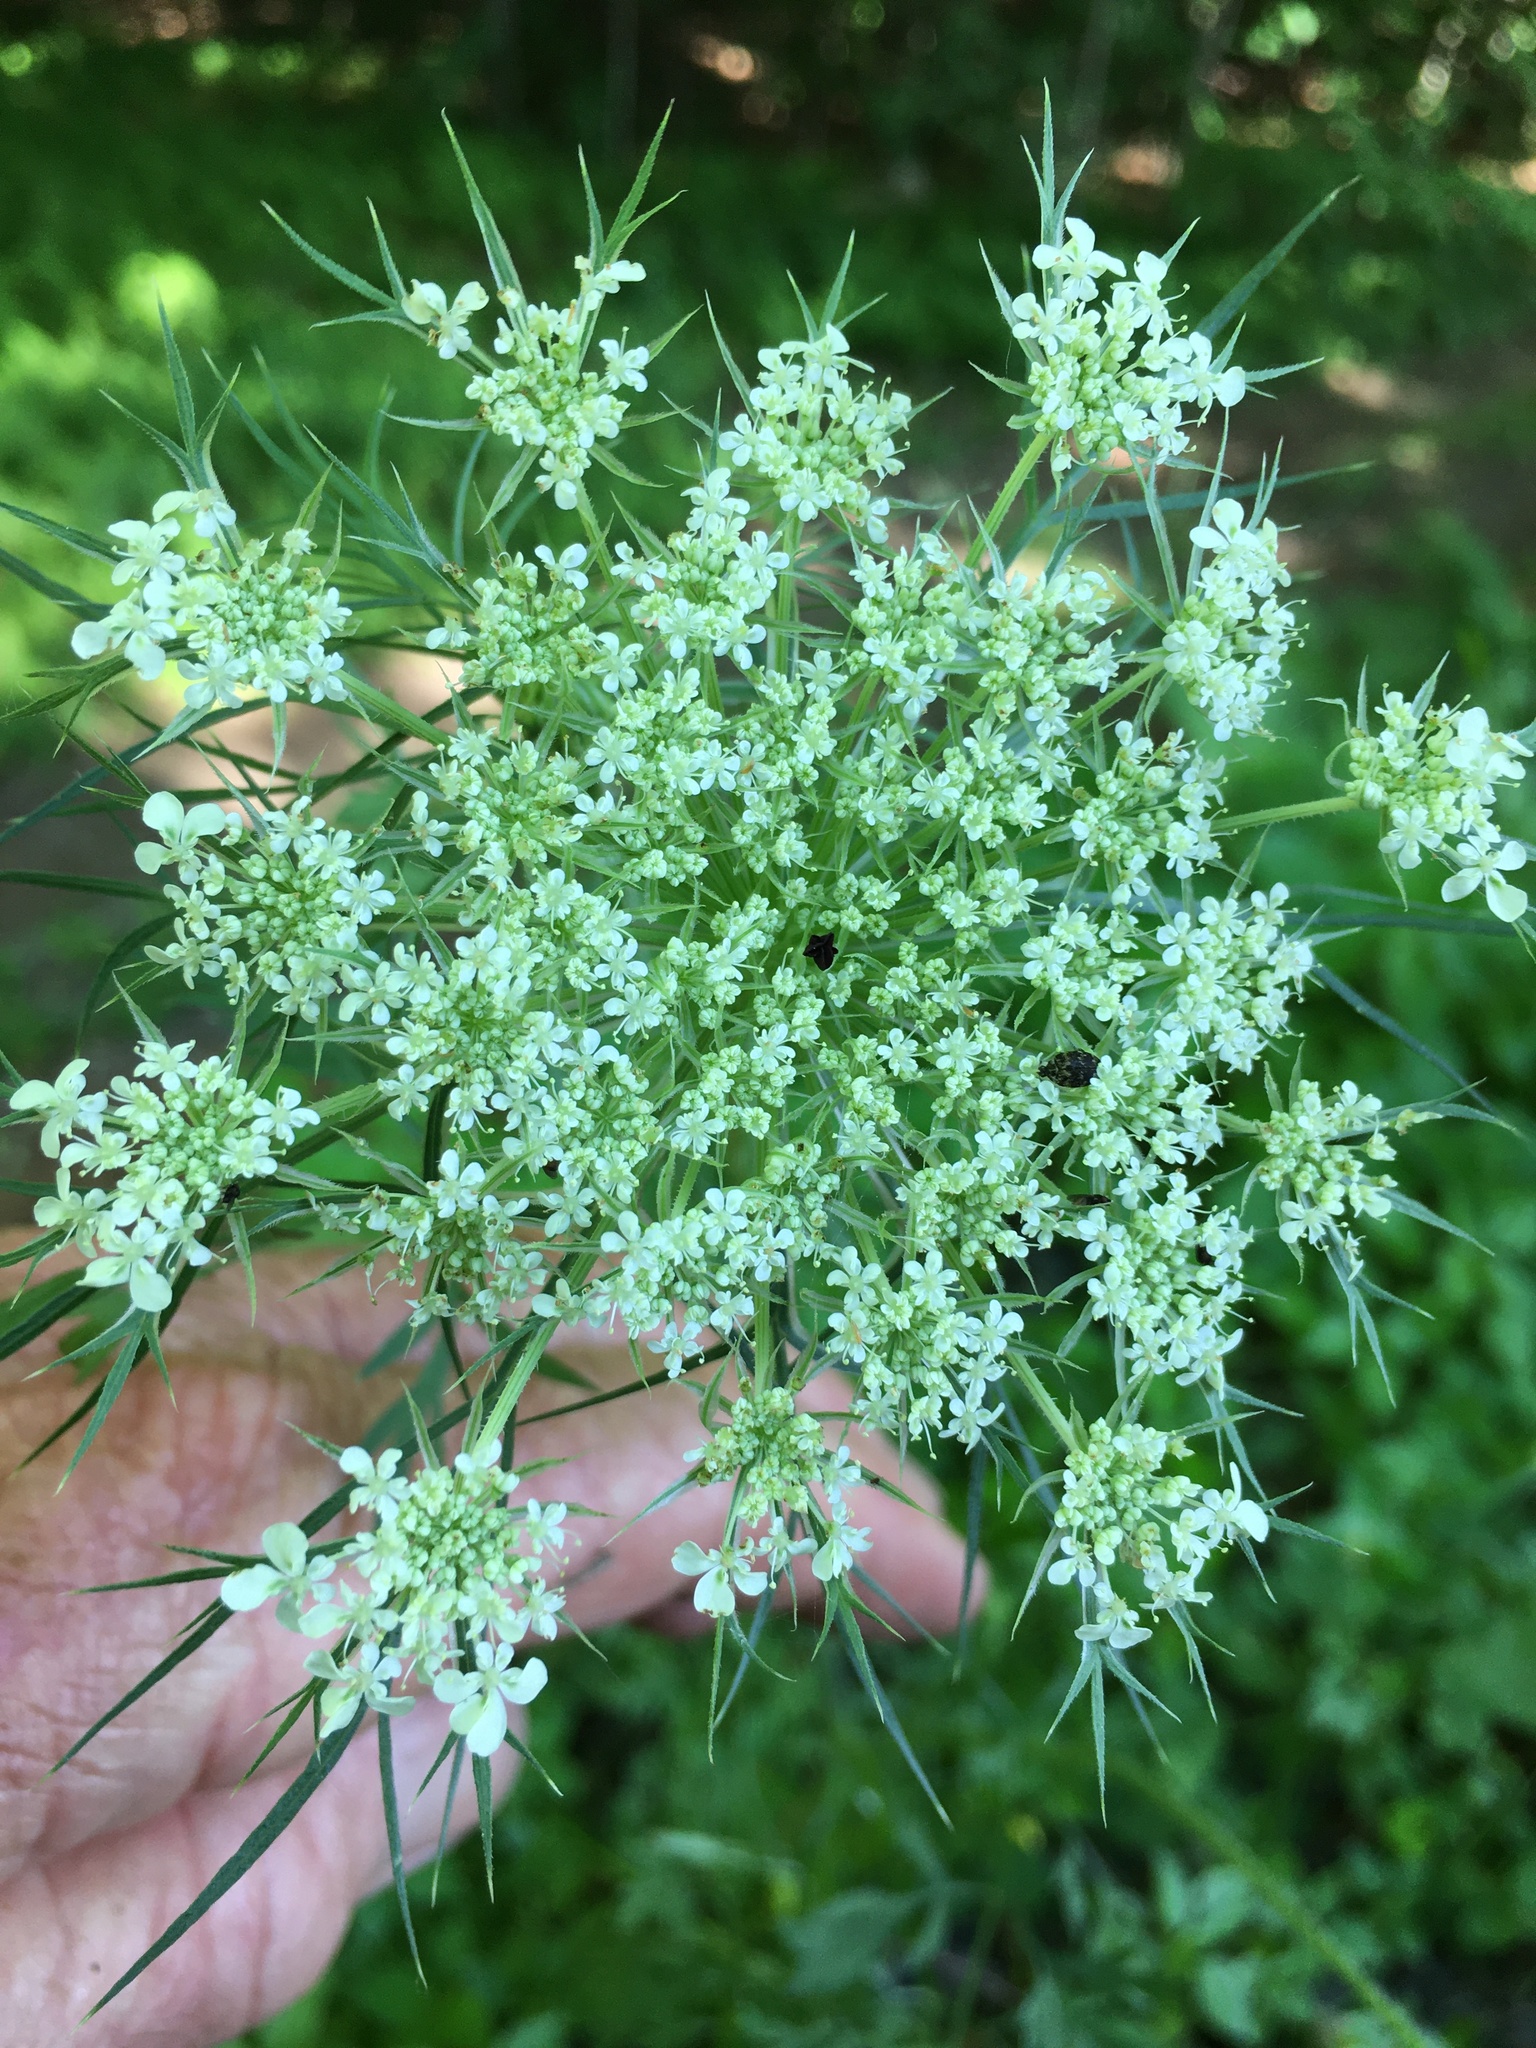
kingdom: Plantae
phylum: Tracheophyta
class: Magnoliopsida
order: Apiales
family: Apiaceae
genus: Daucus
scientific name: Daucus carota
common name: Wild carrot
